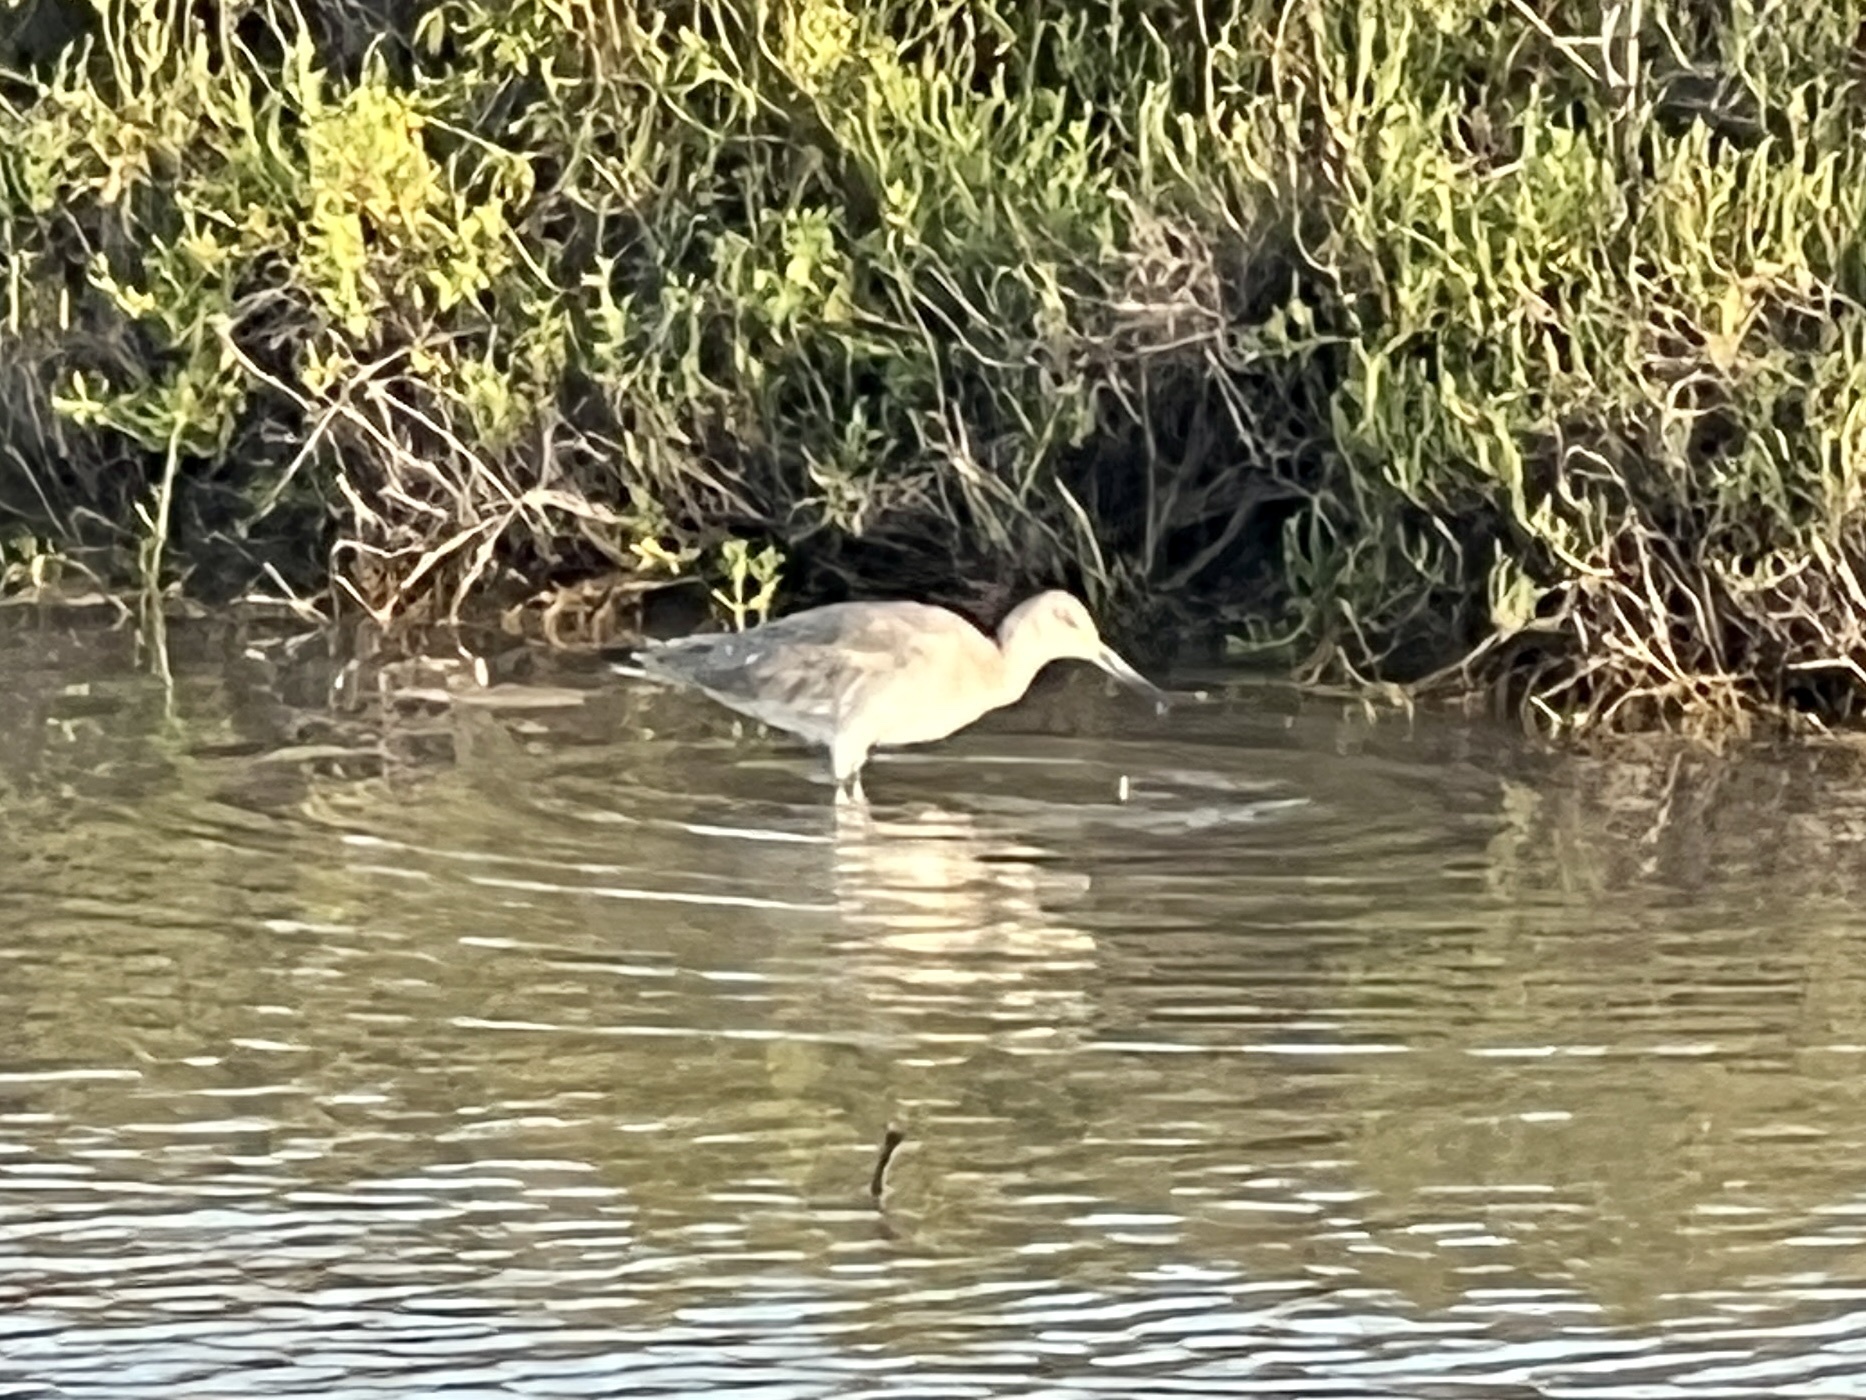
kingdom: Animalia
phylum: Chordata
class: Aves
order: Charadriiformes
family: Scolopacidae
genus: Tringa
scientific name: Tringa semipalmata
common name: Willet
